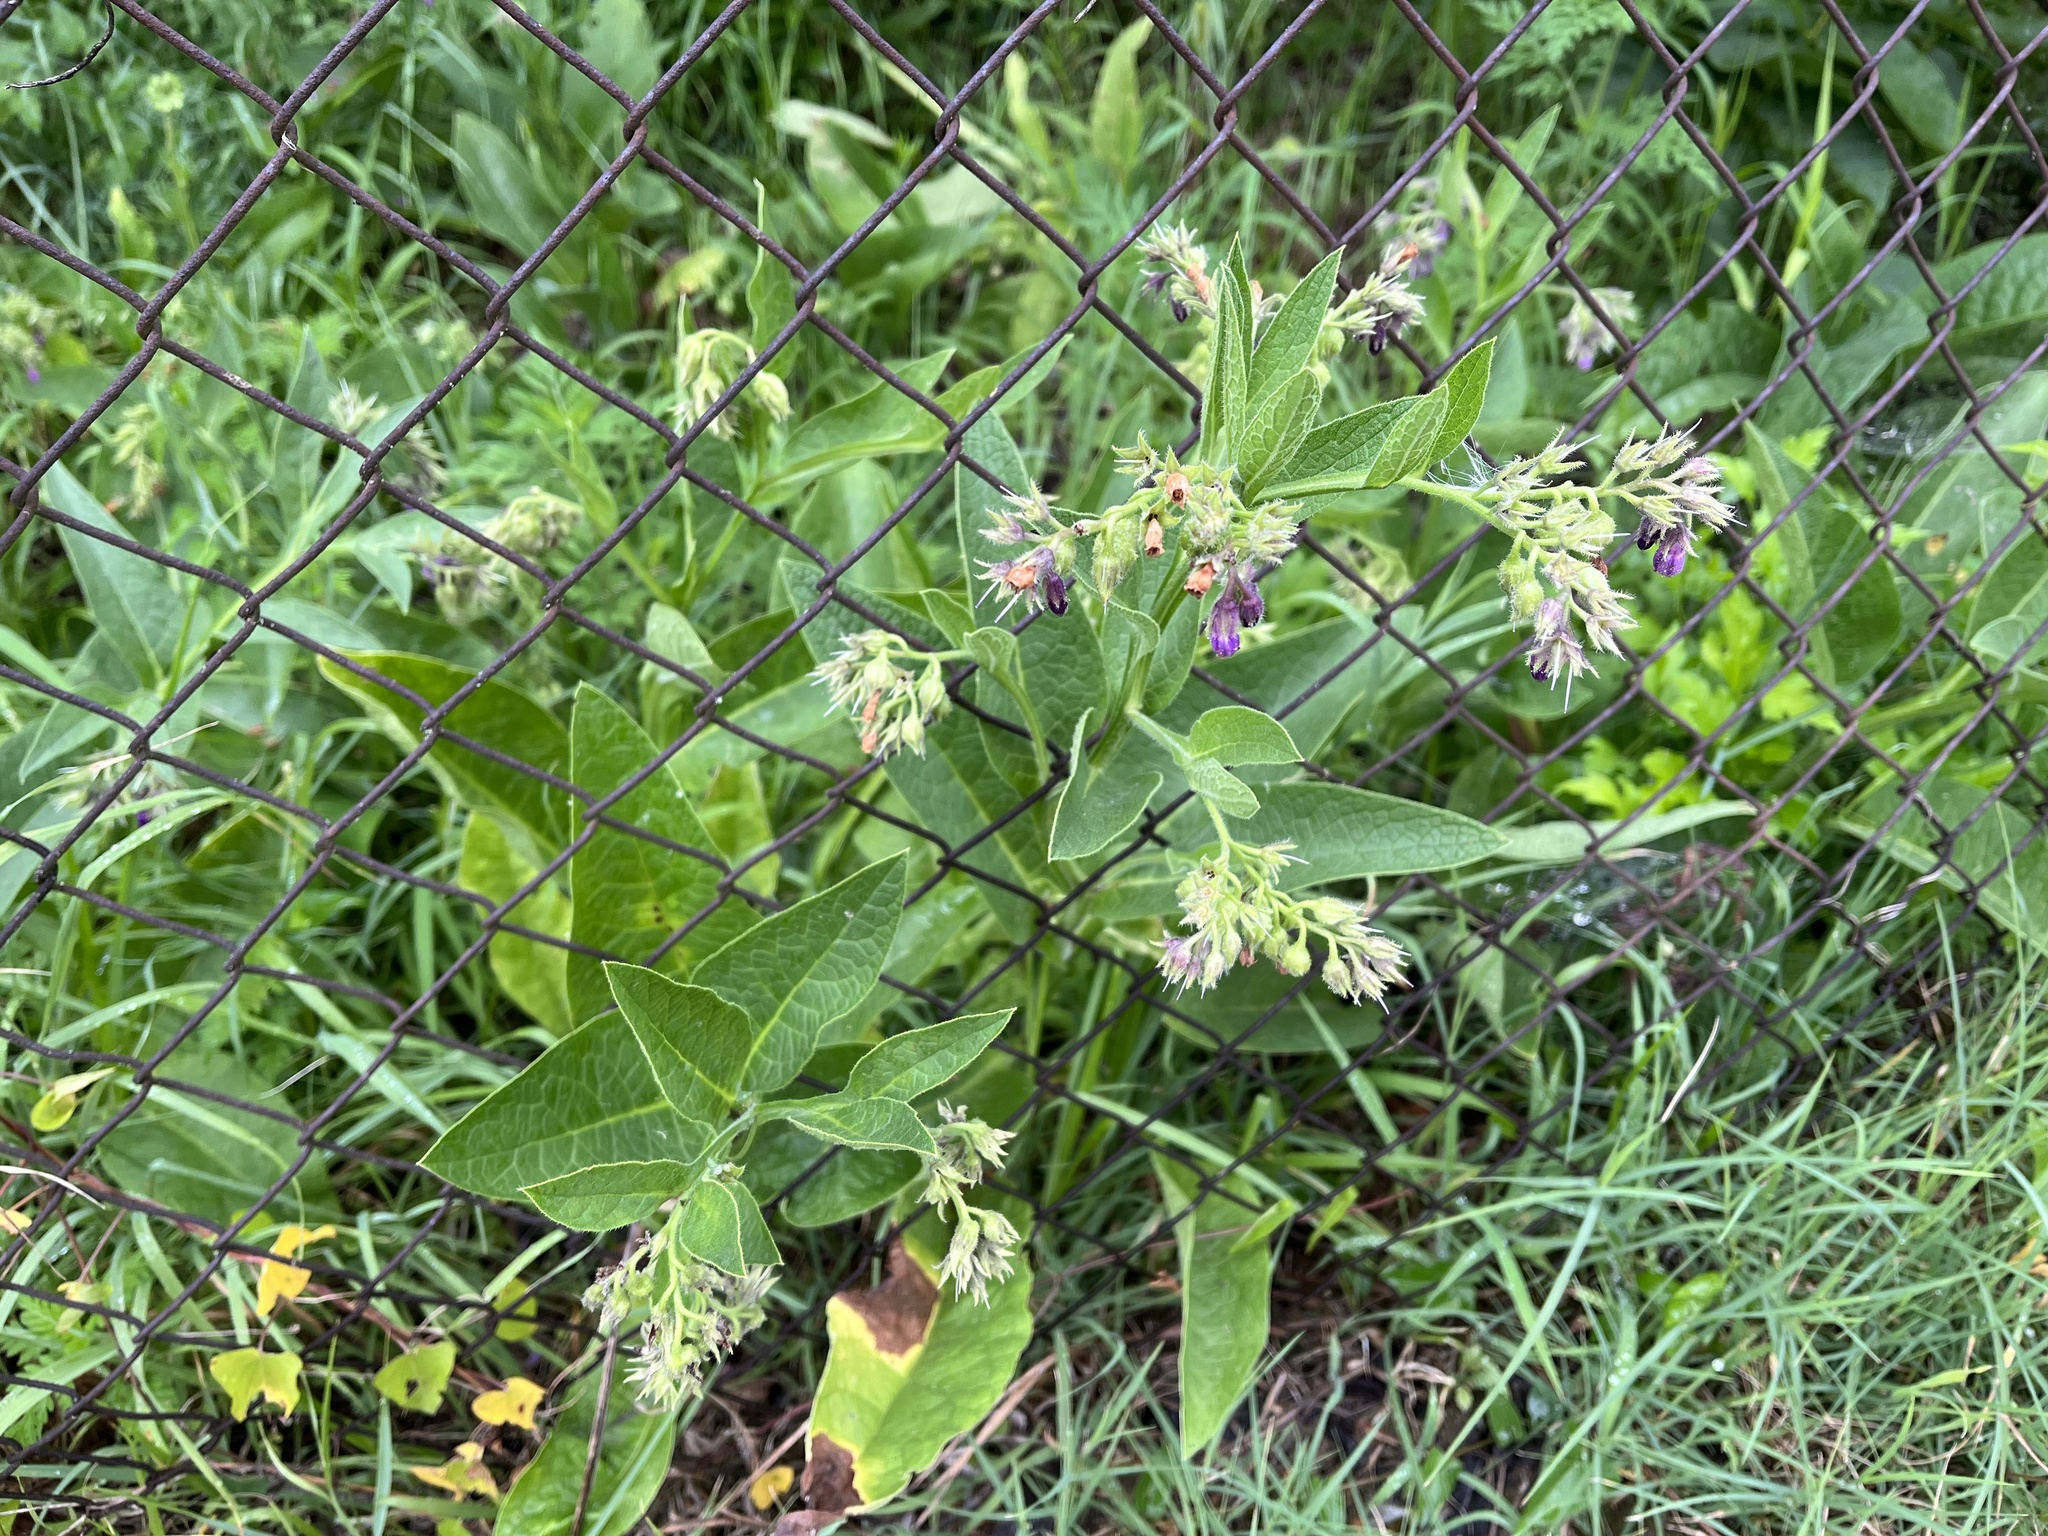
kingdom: Plantae
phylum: Tracheophyta
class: Magnoliopsida
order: Boraginales
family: Boraginaceae
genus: Symphytum
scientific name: Symphytum officinale
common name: Common comfrey
